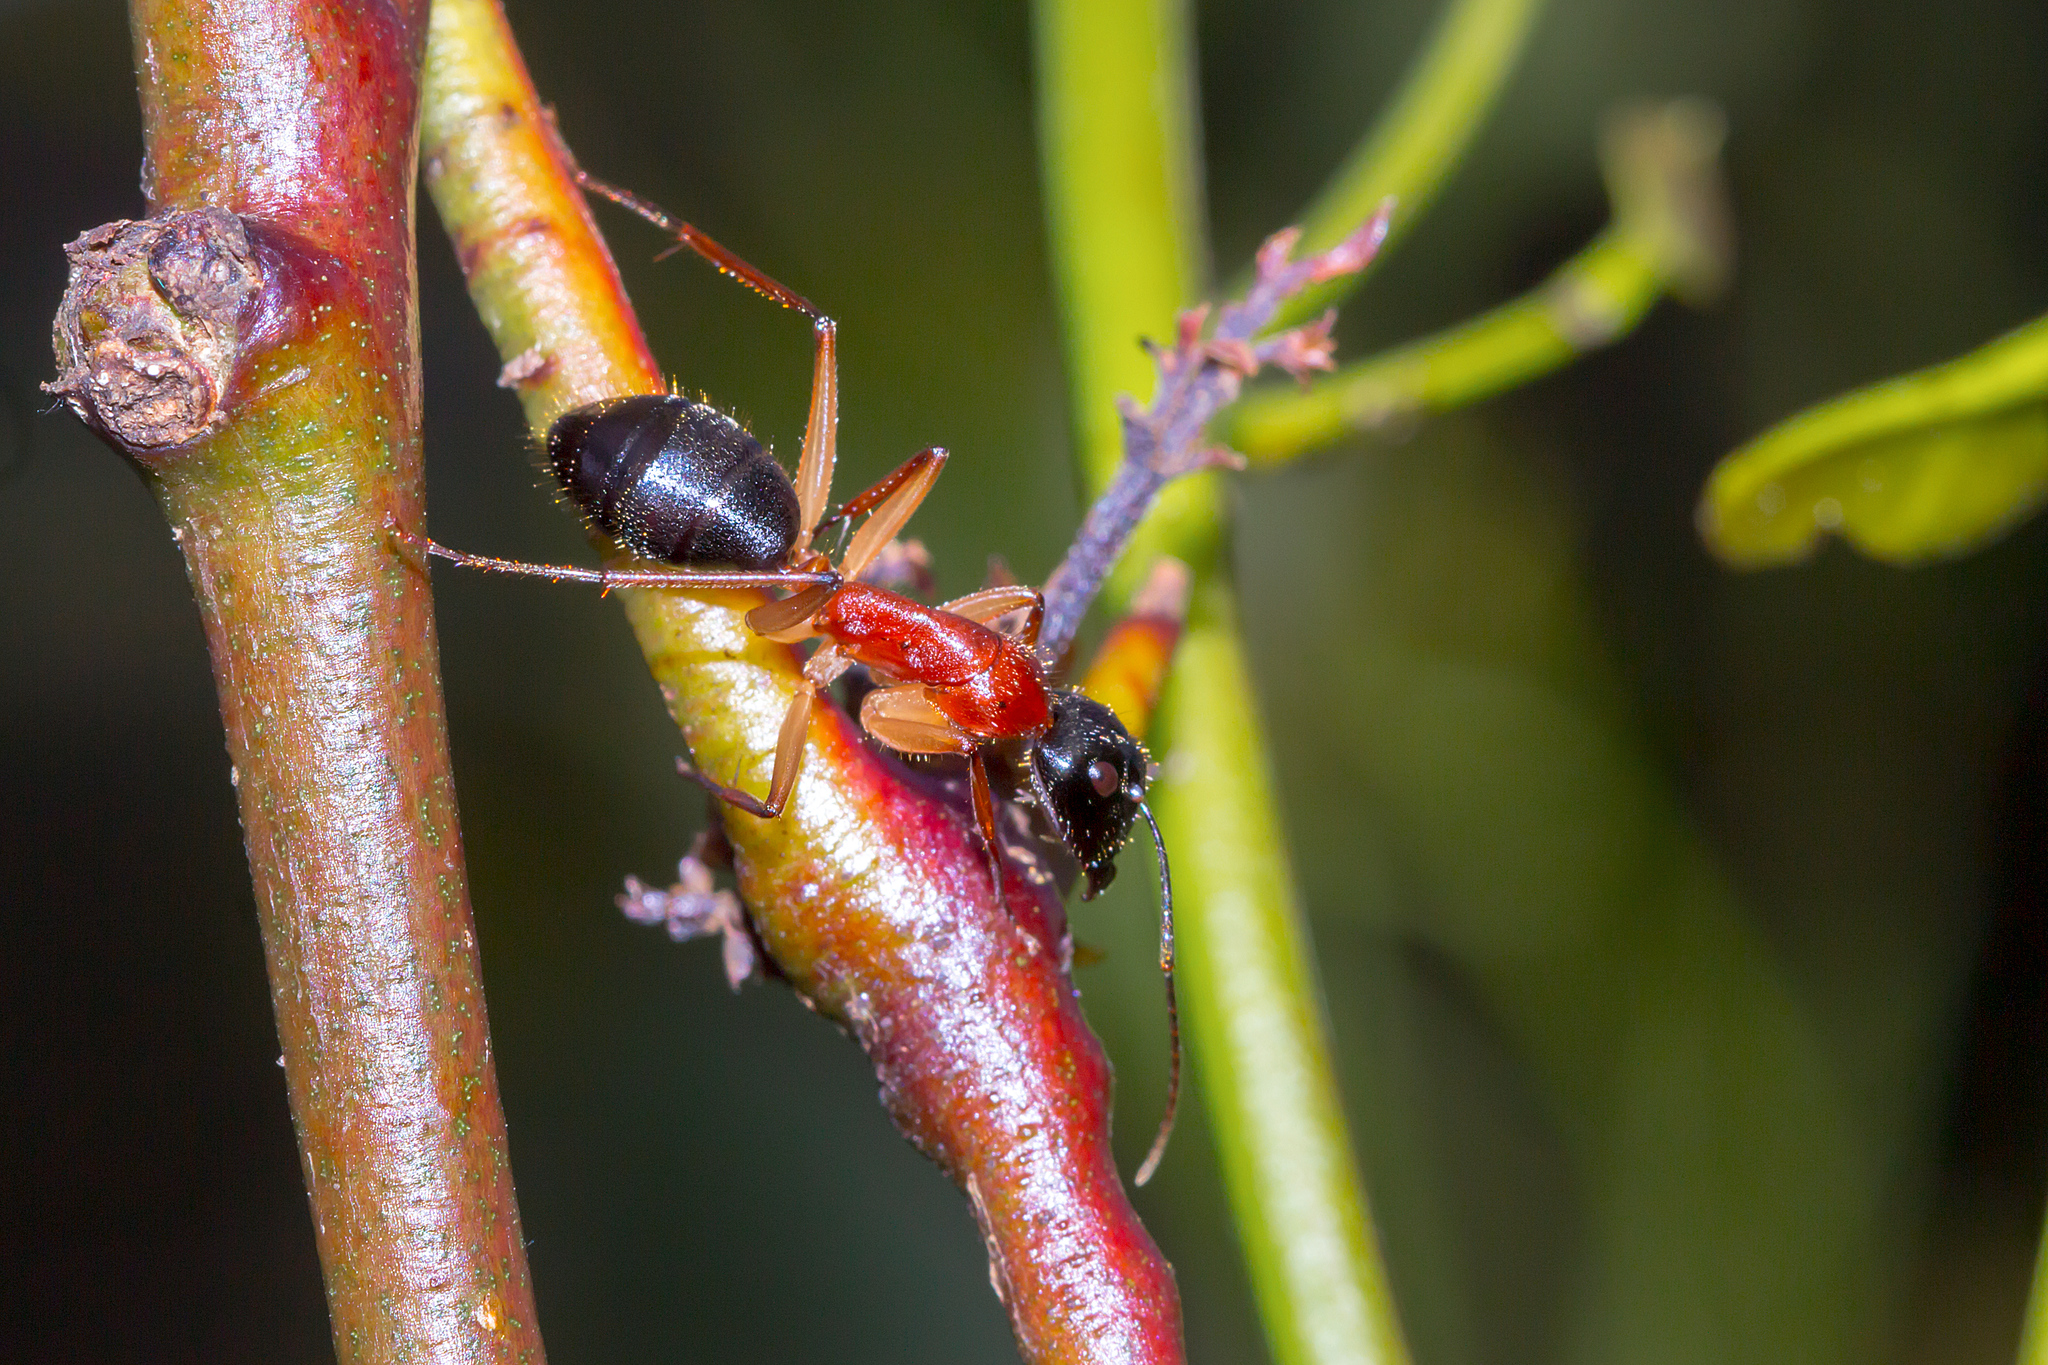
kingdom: Animalia
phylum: Arthropoda
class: Insecta
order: Hymenoptera
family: Formicidae
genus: Camponotus
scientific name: Camponotus nigriceps
